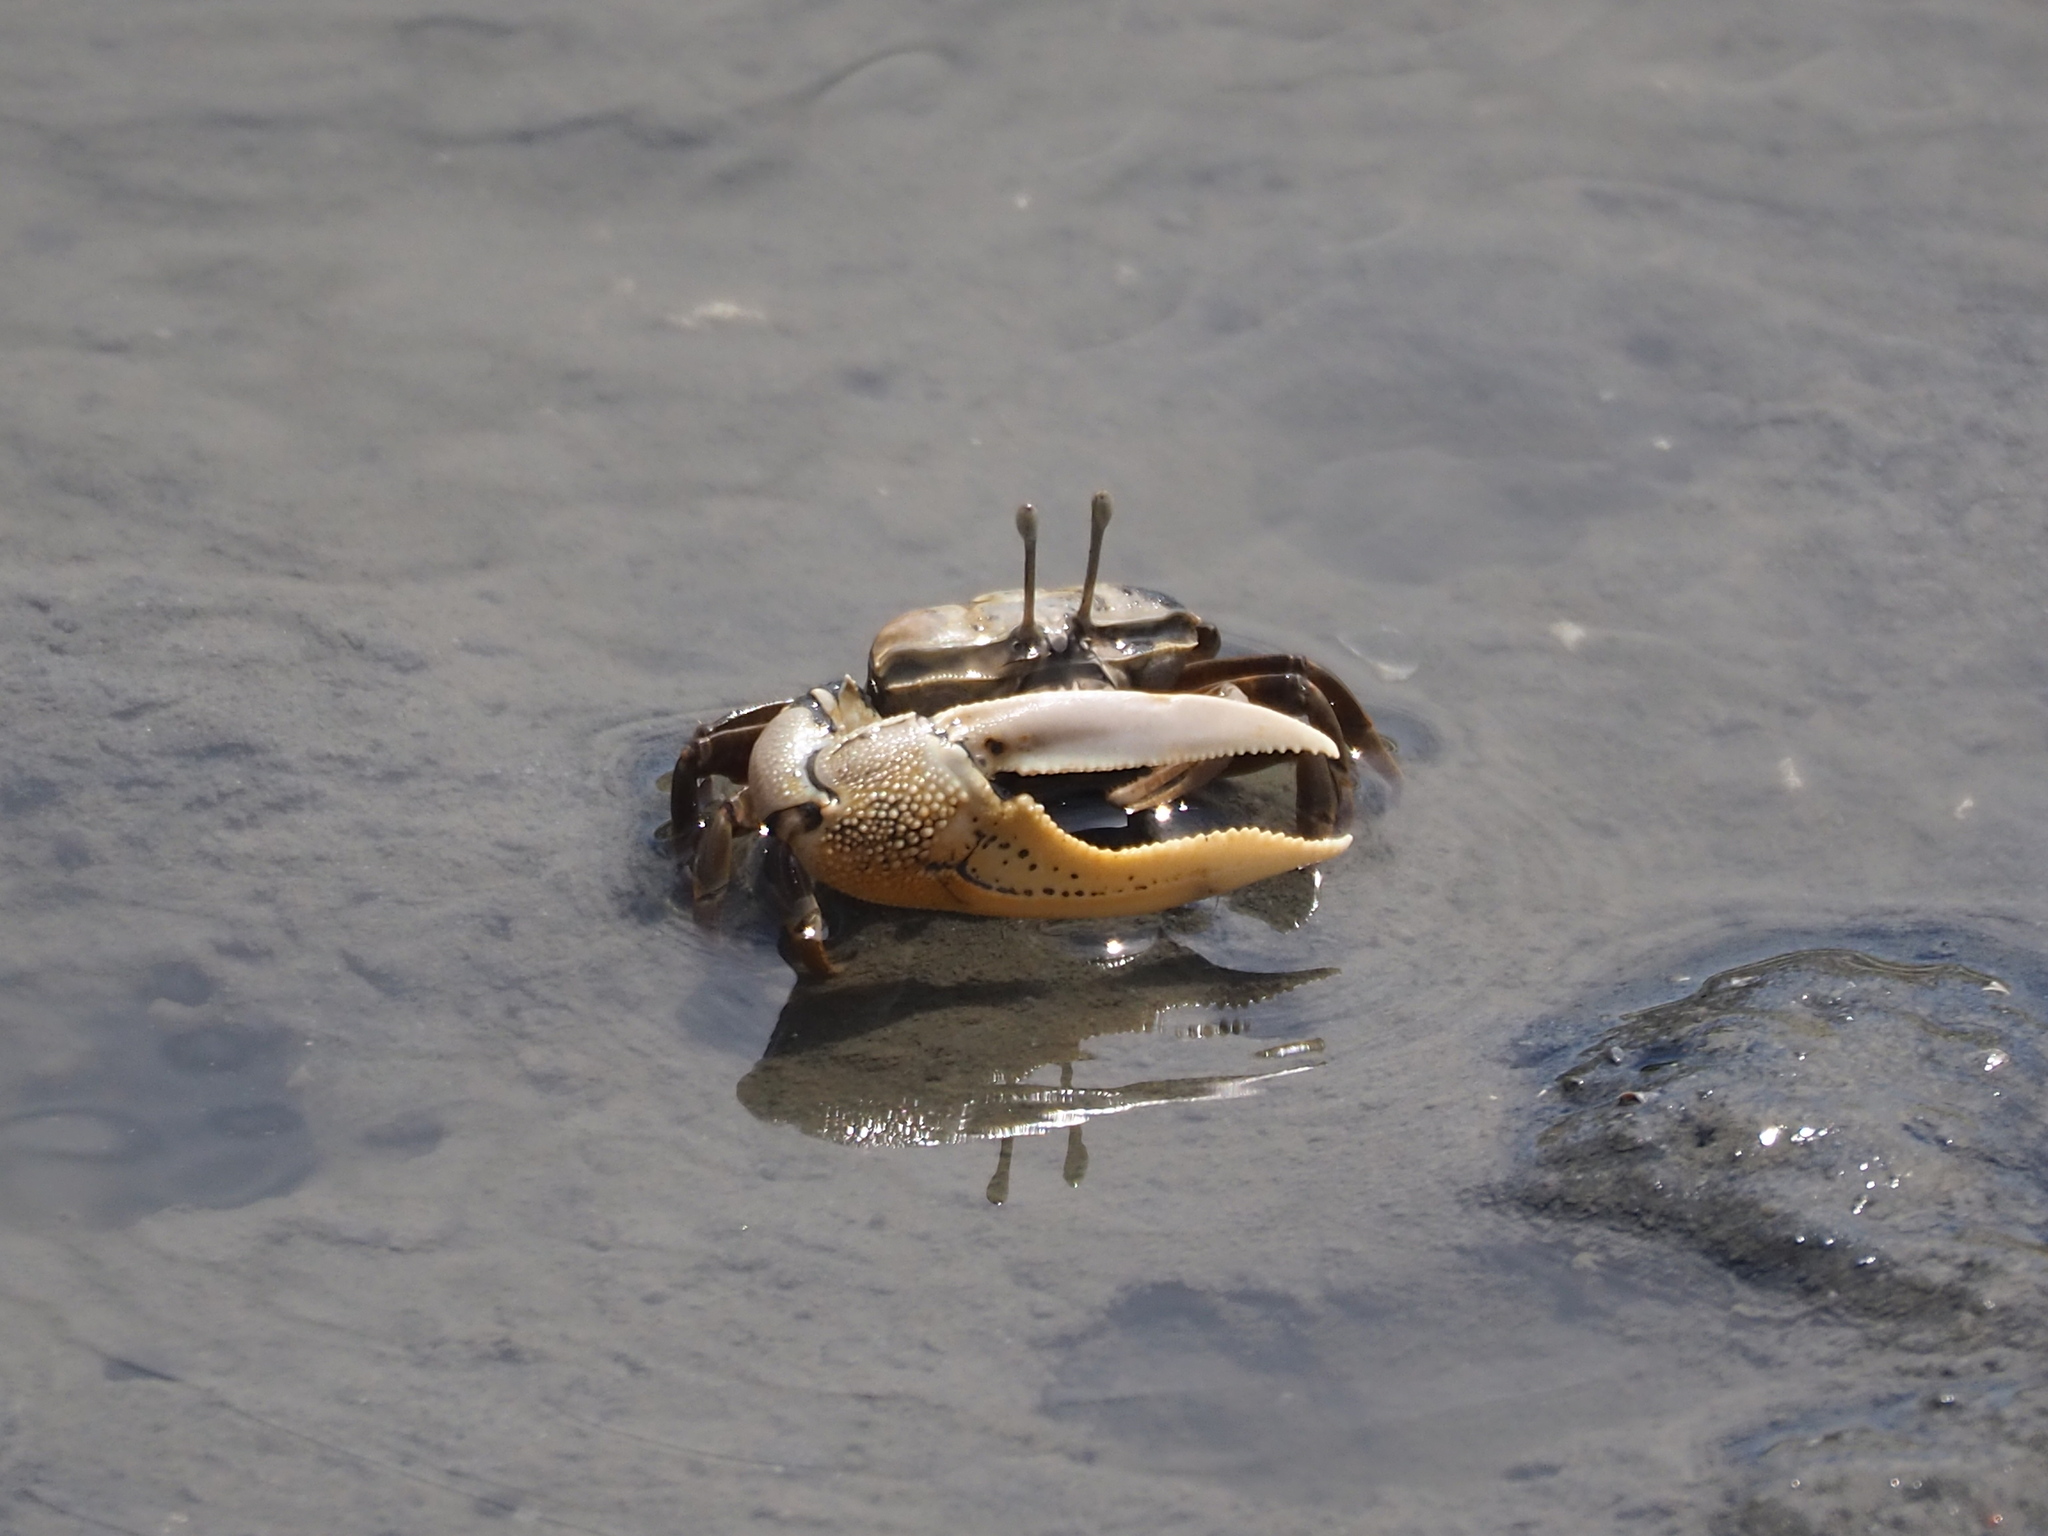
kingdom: Animalia
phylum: Arthropoda
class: Malacostraca
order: Decapoda
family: Ocypodidae
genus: Gelasimus
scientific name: Gelasimus borealis
